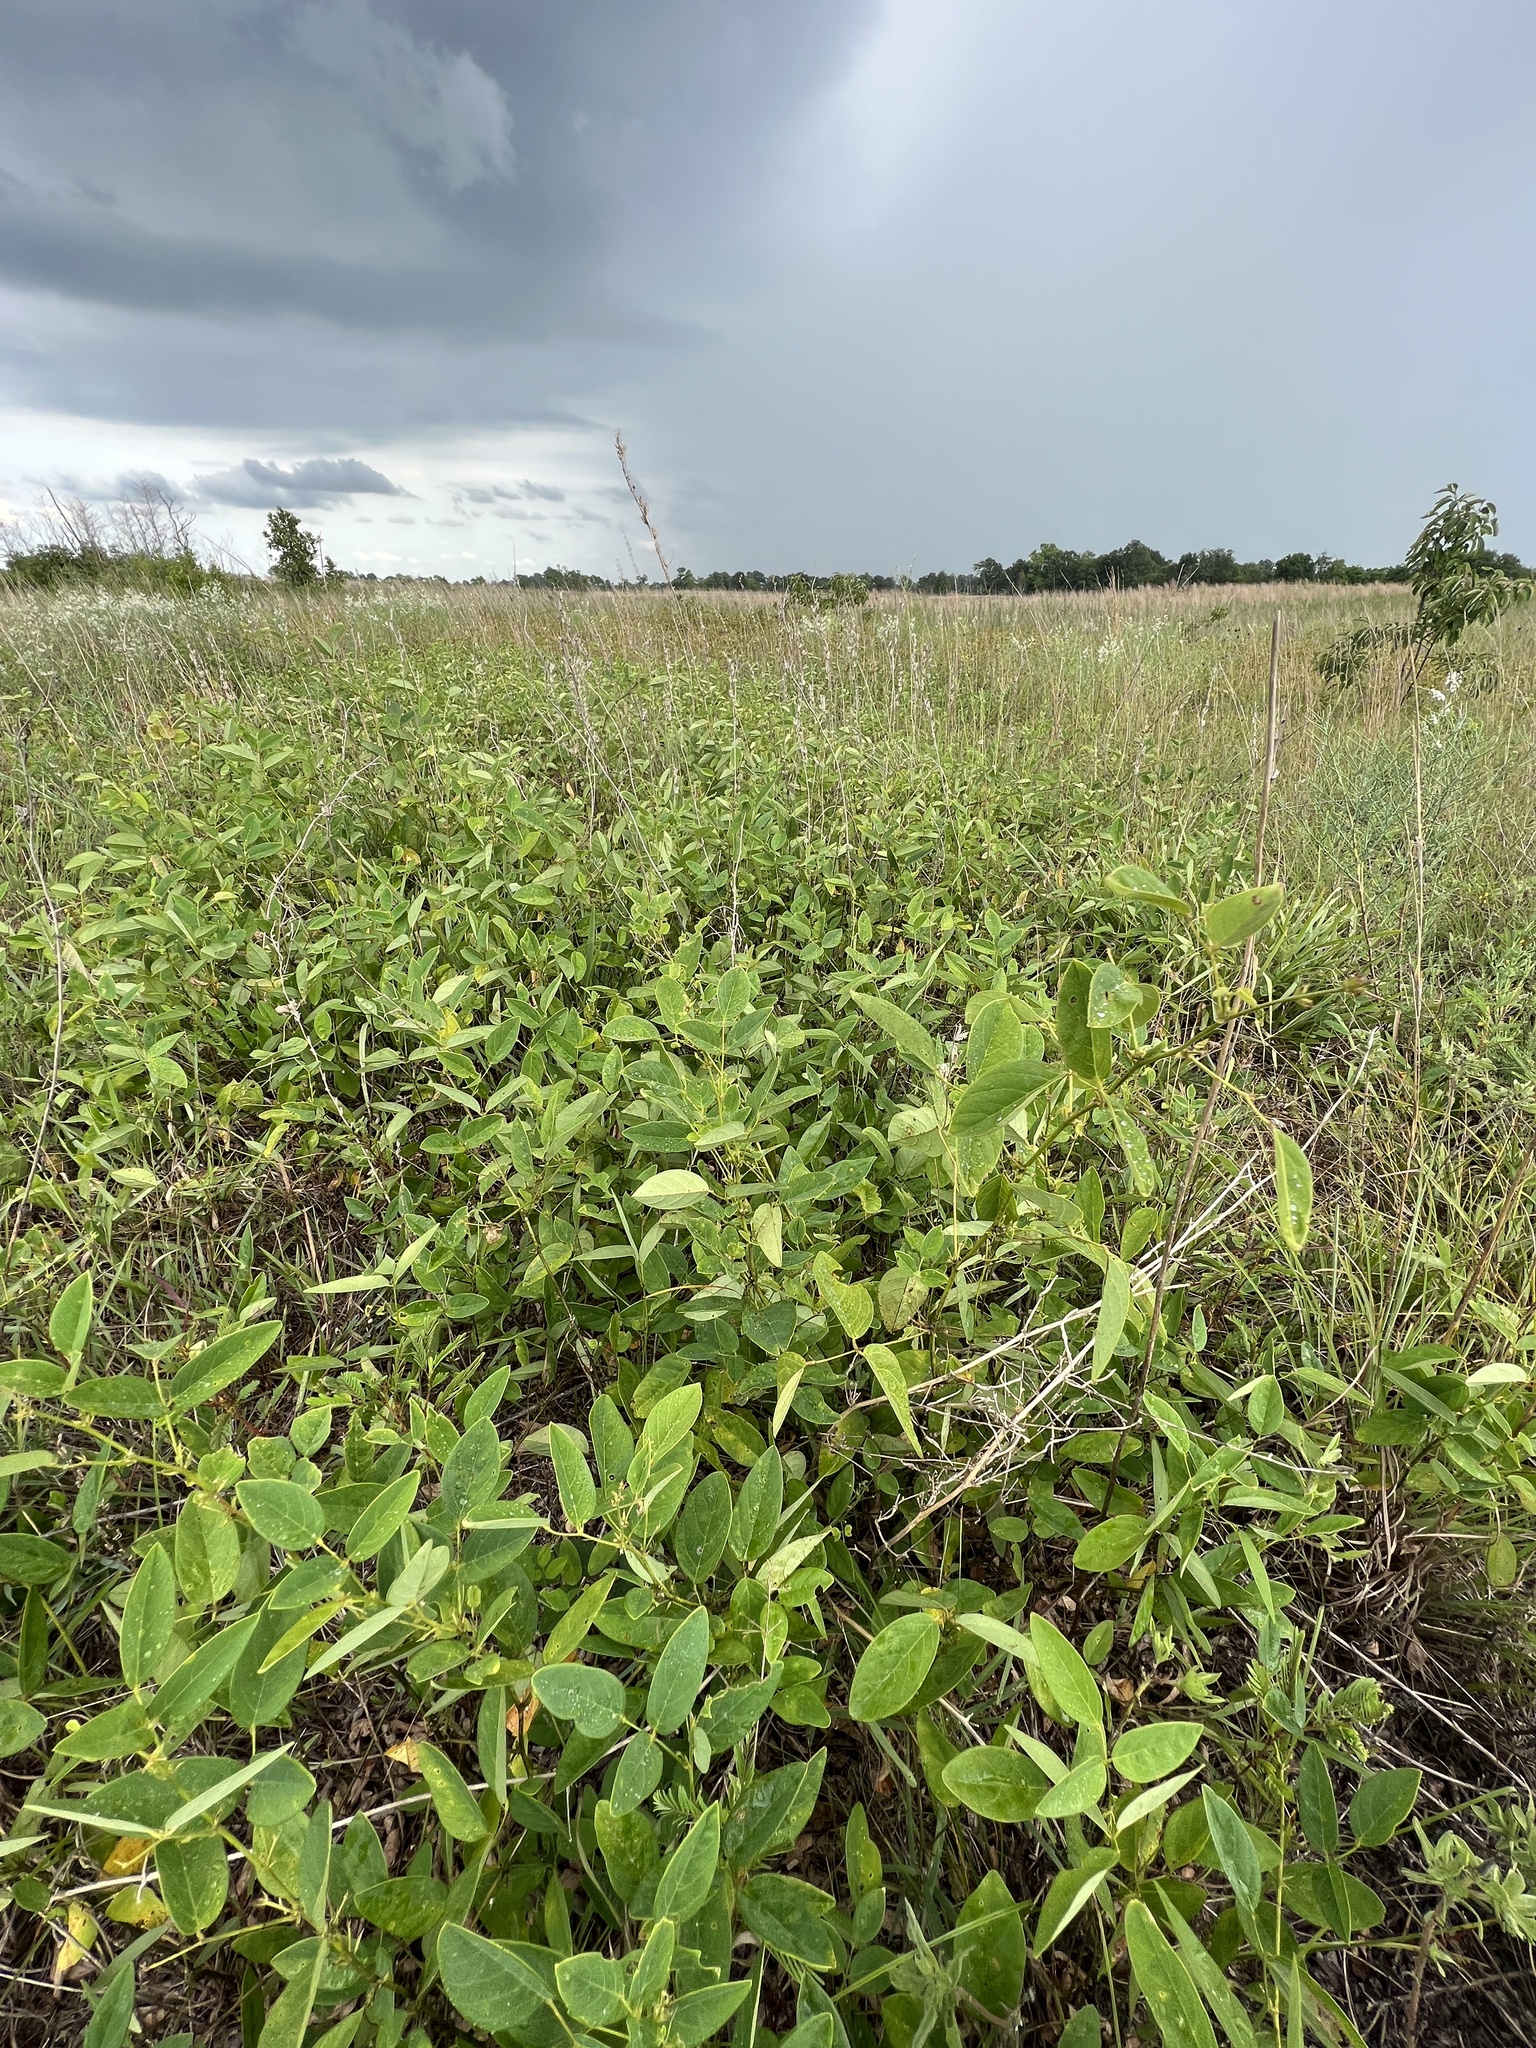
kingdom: Plantae
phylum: Tracheophyta
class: Magnoliopsida
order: Fabales
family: Fabaceae
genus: Clitoria
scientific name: Clitoria mariana
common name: Butterfly-pea
